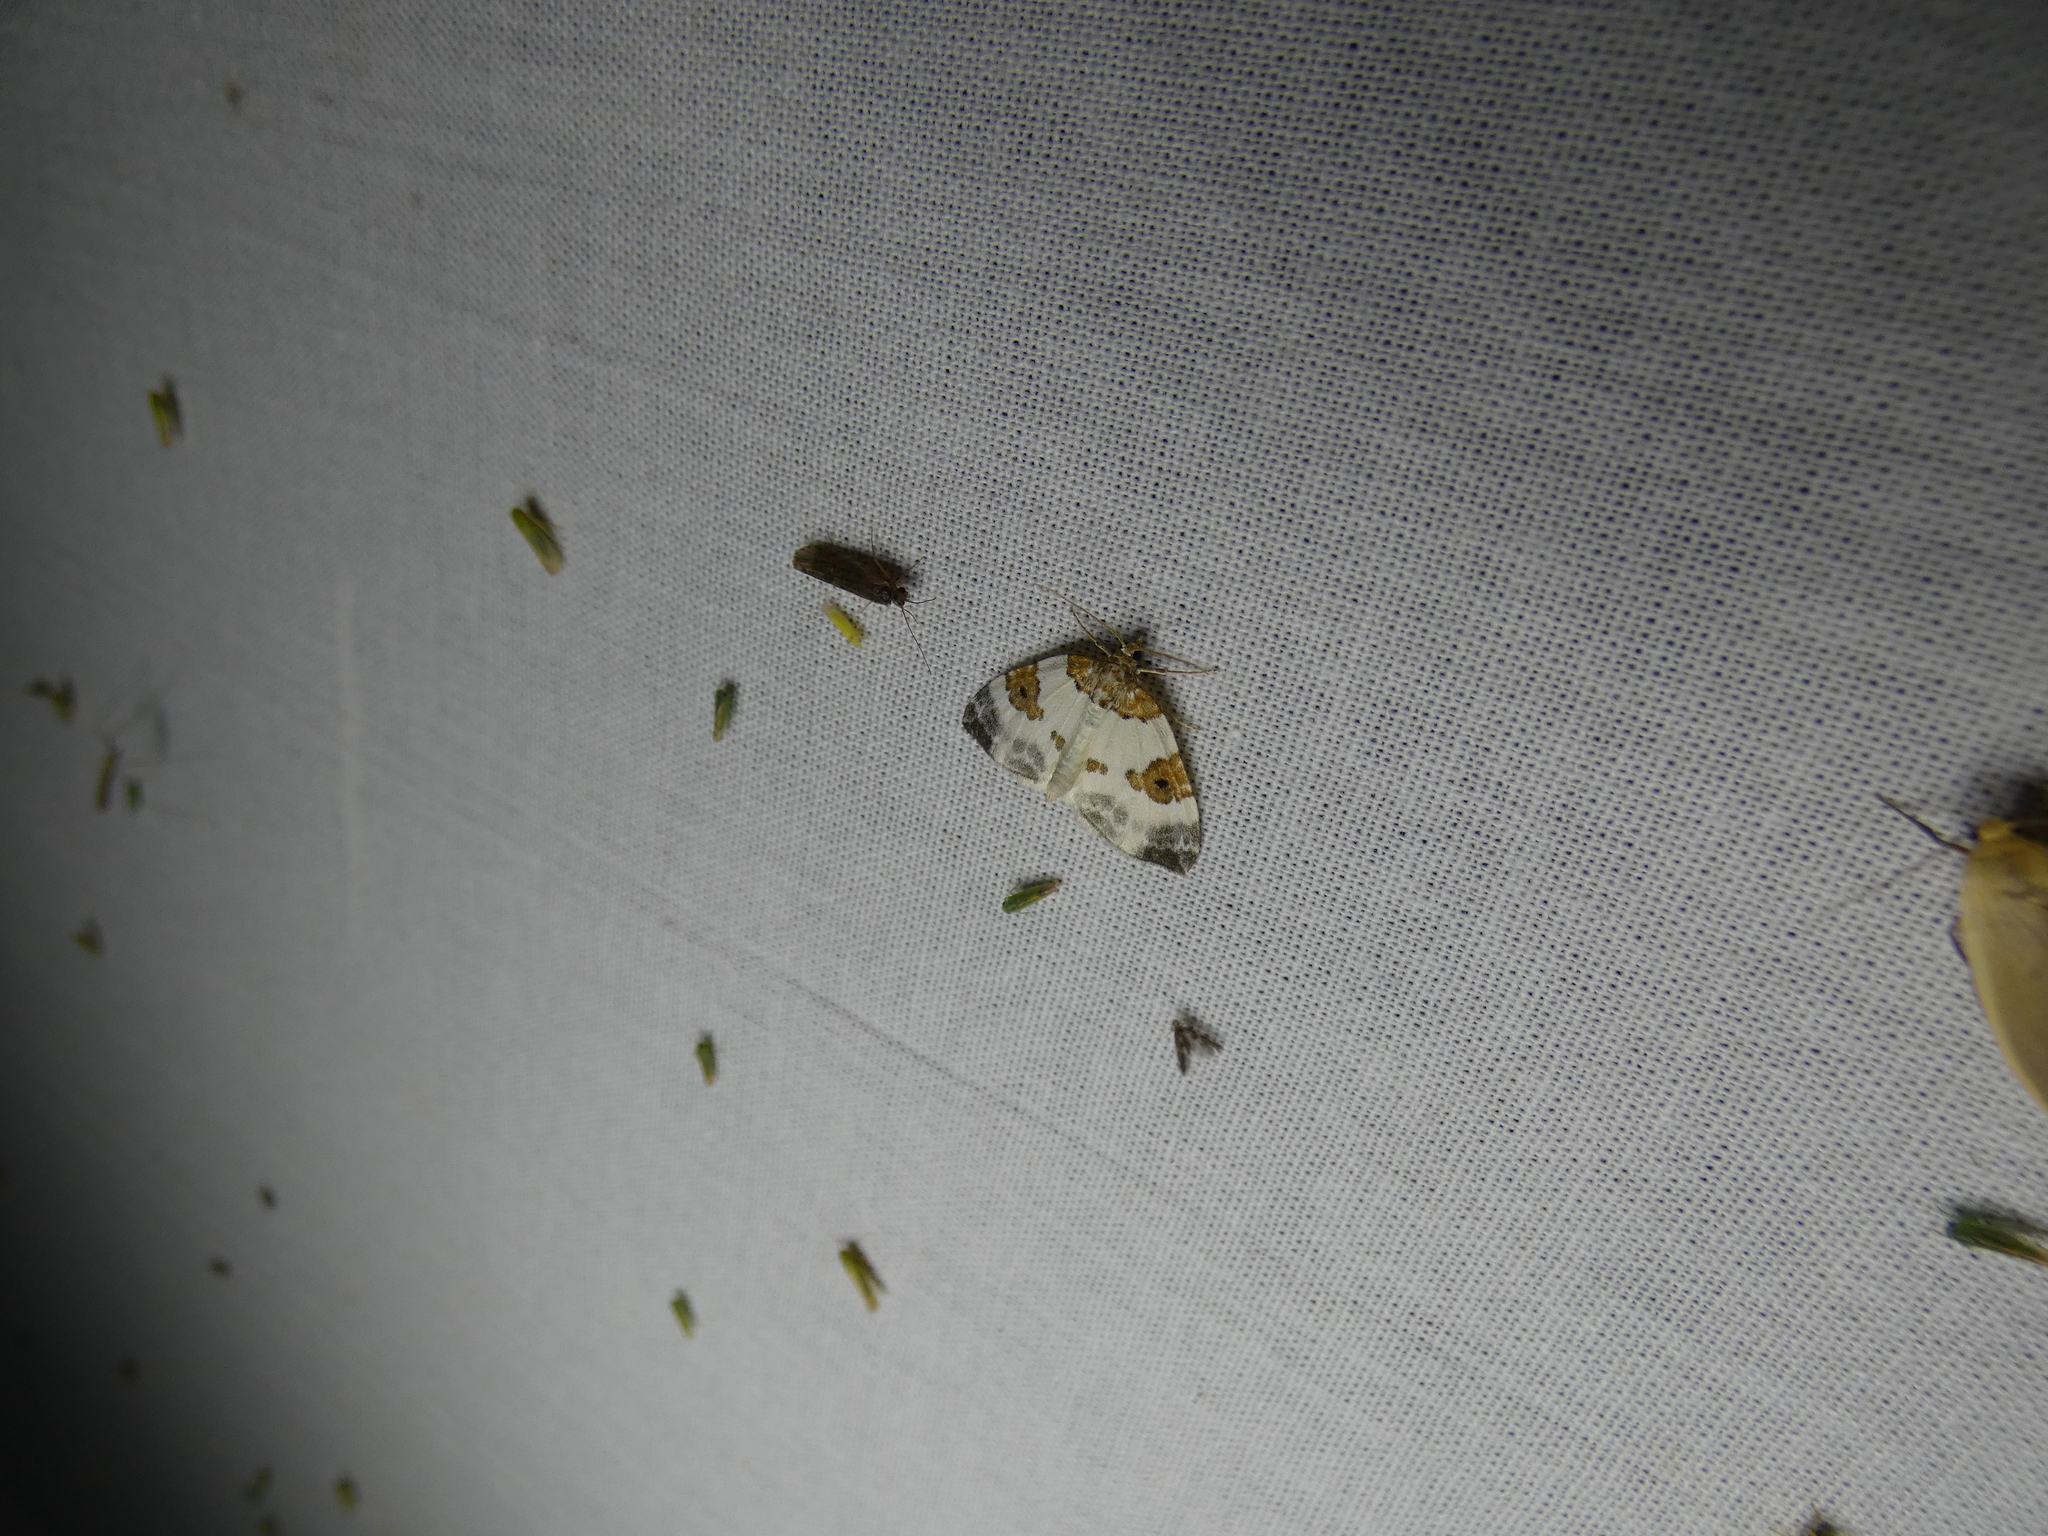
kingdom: Animalia
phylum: Arthropoda
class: Insecta
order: Lepidoptera
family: Geometridae
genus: Plemyria
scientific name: Plemyria rubiginata
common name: Blue-bordered carpet
